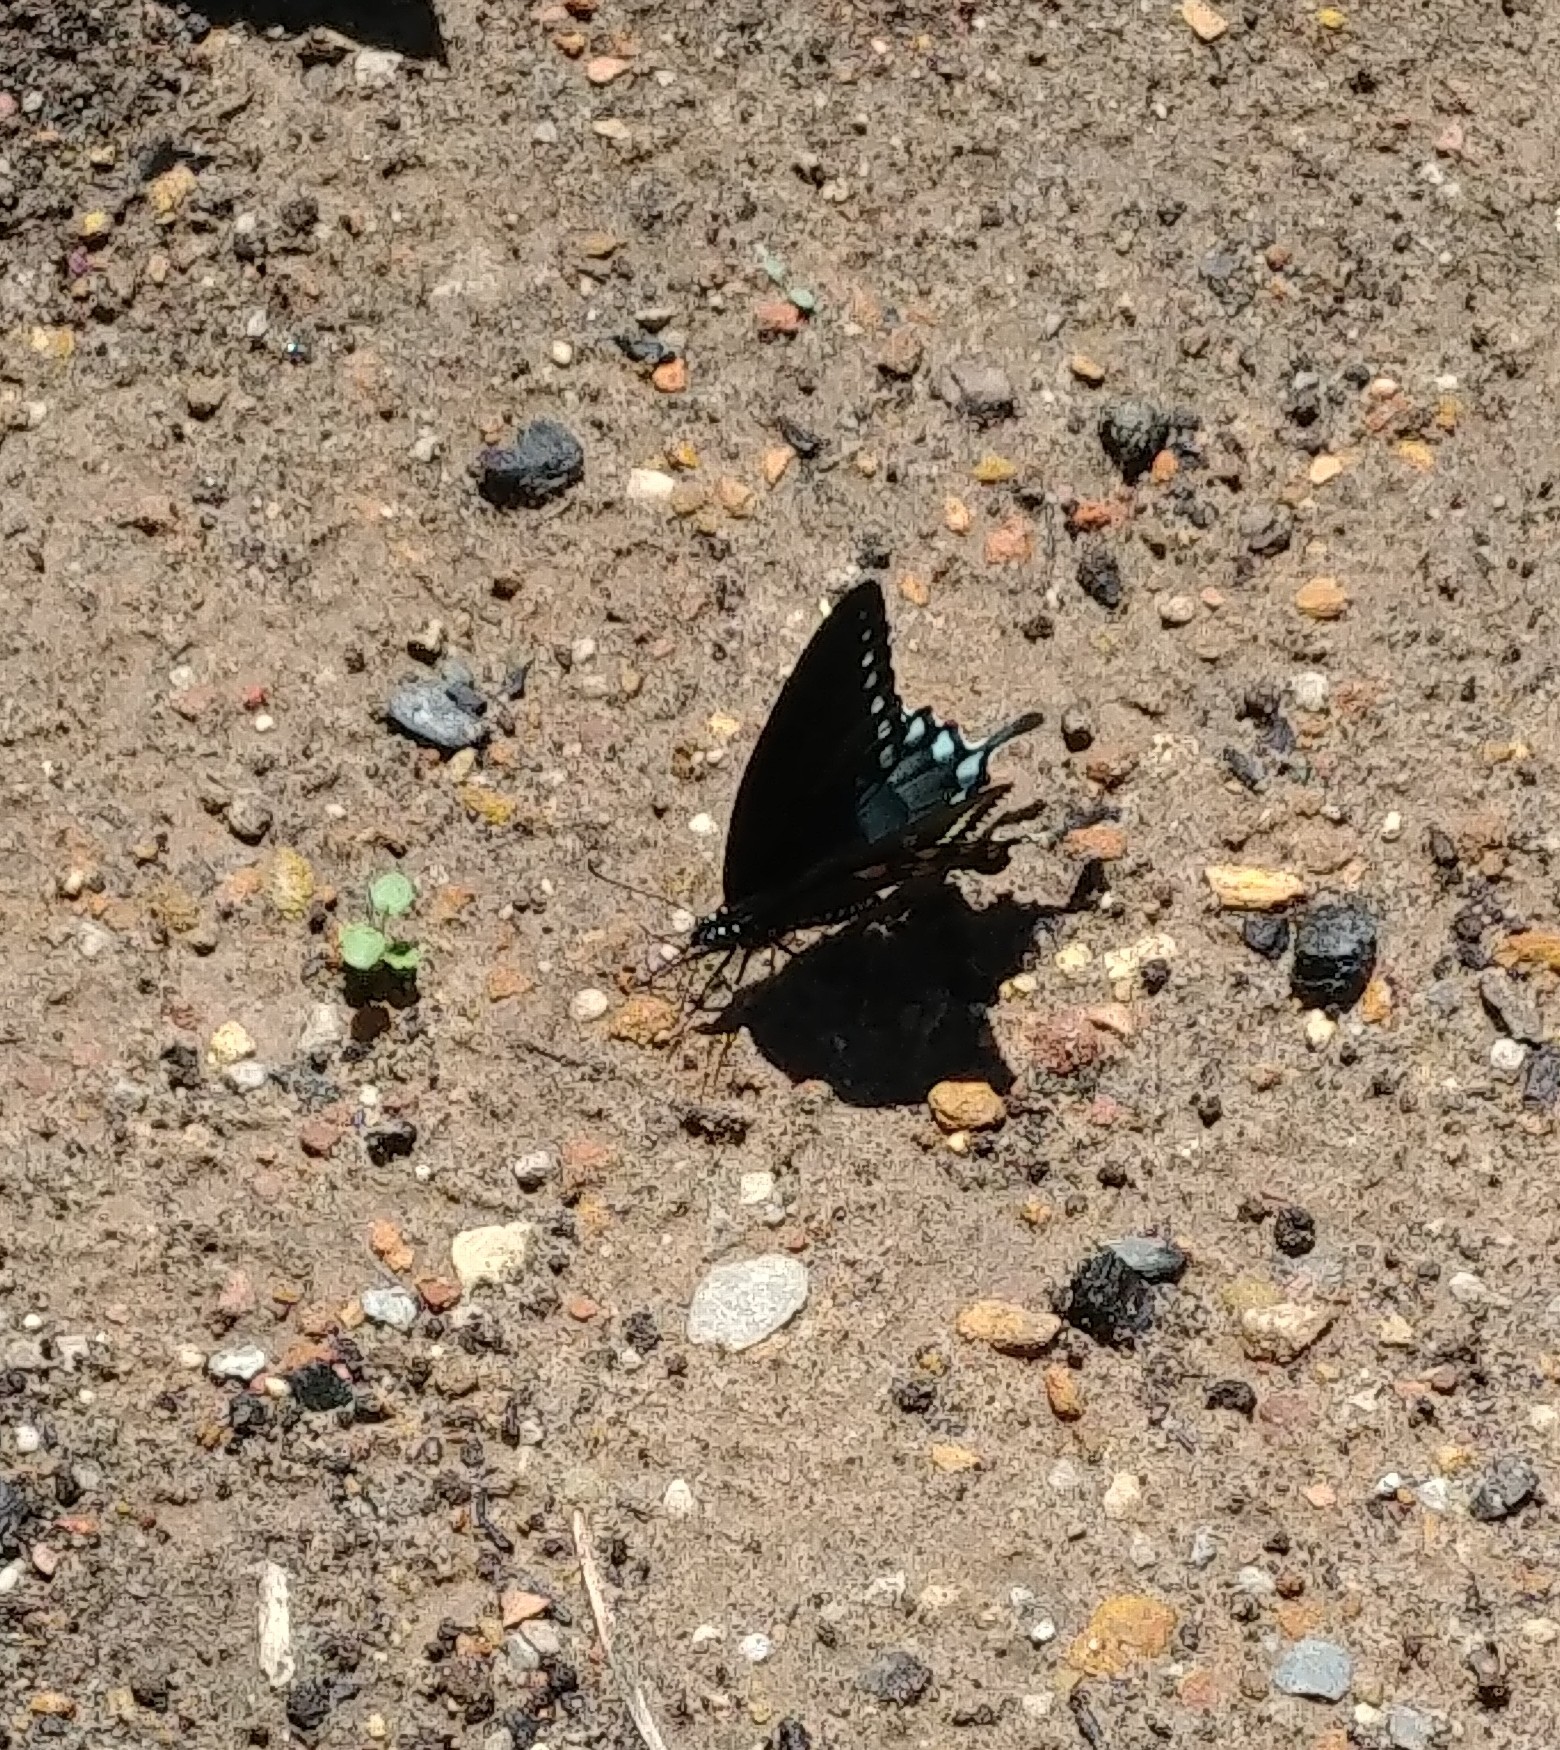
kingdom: Animalia
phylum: Arthropoda
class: Insecta
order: Lepidoptera
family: Papilionidae
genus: Papilio
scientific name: Papilio troilus
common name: Spicebush swallowtail
